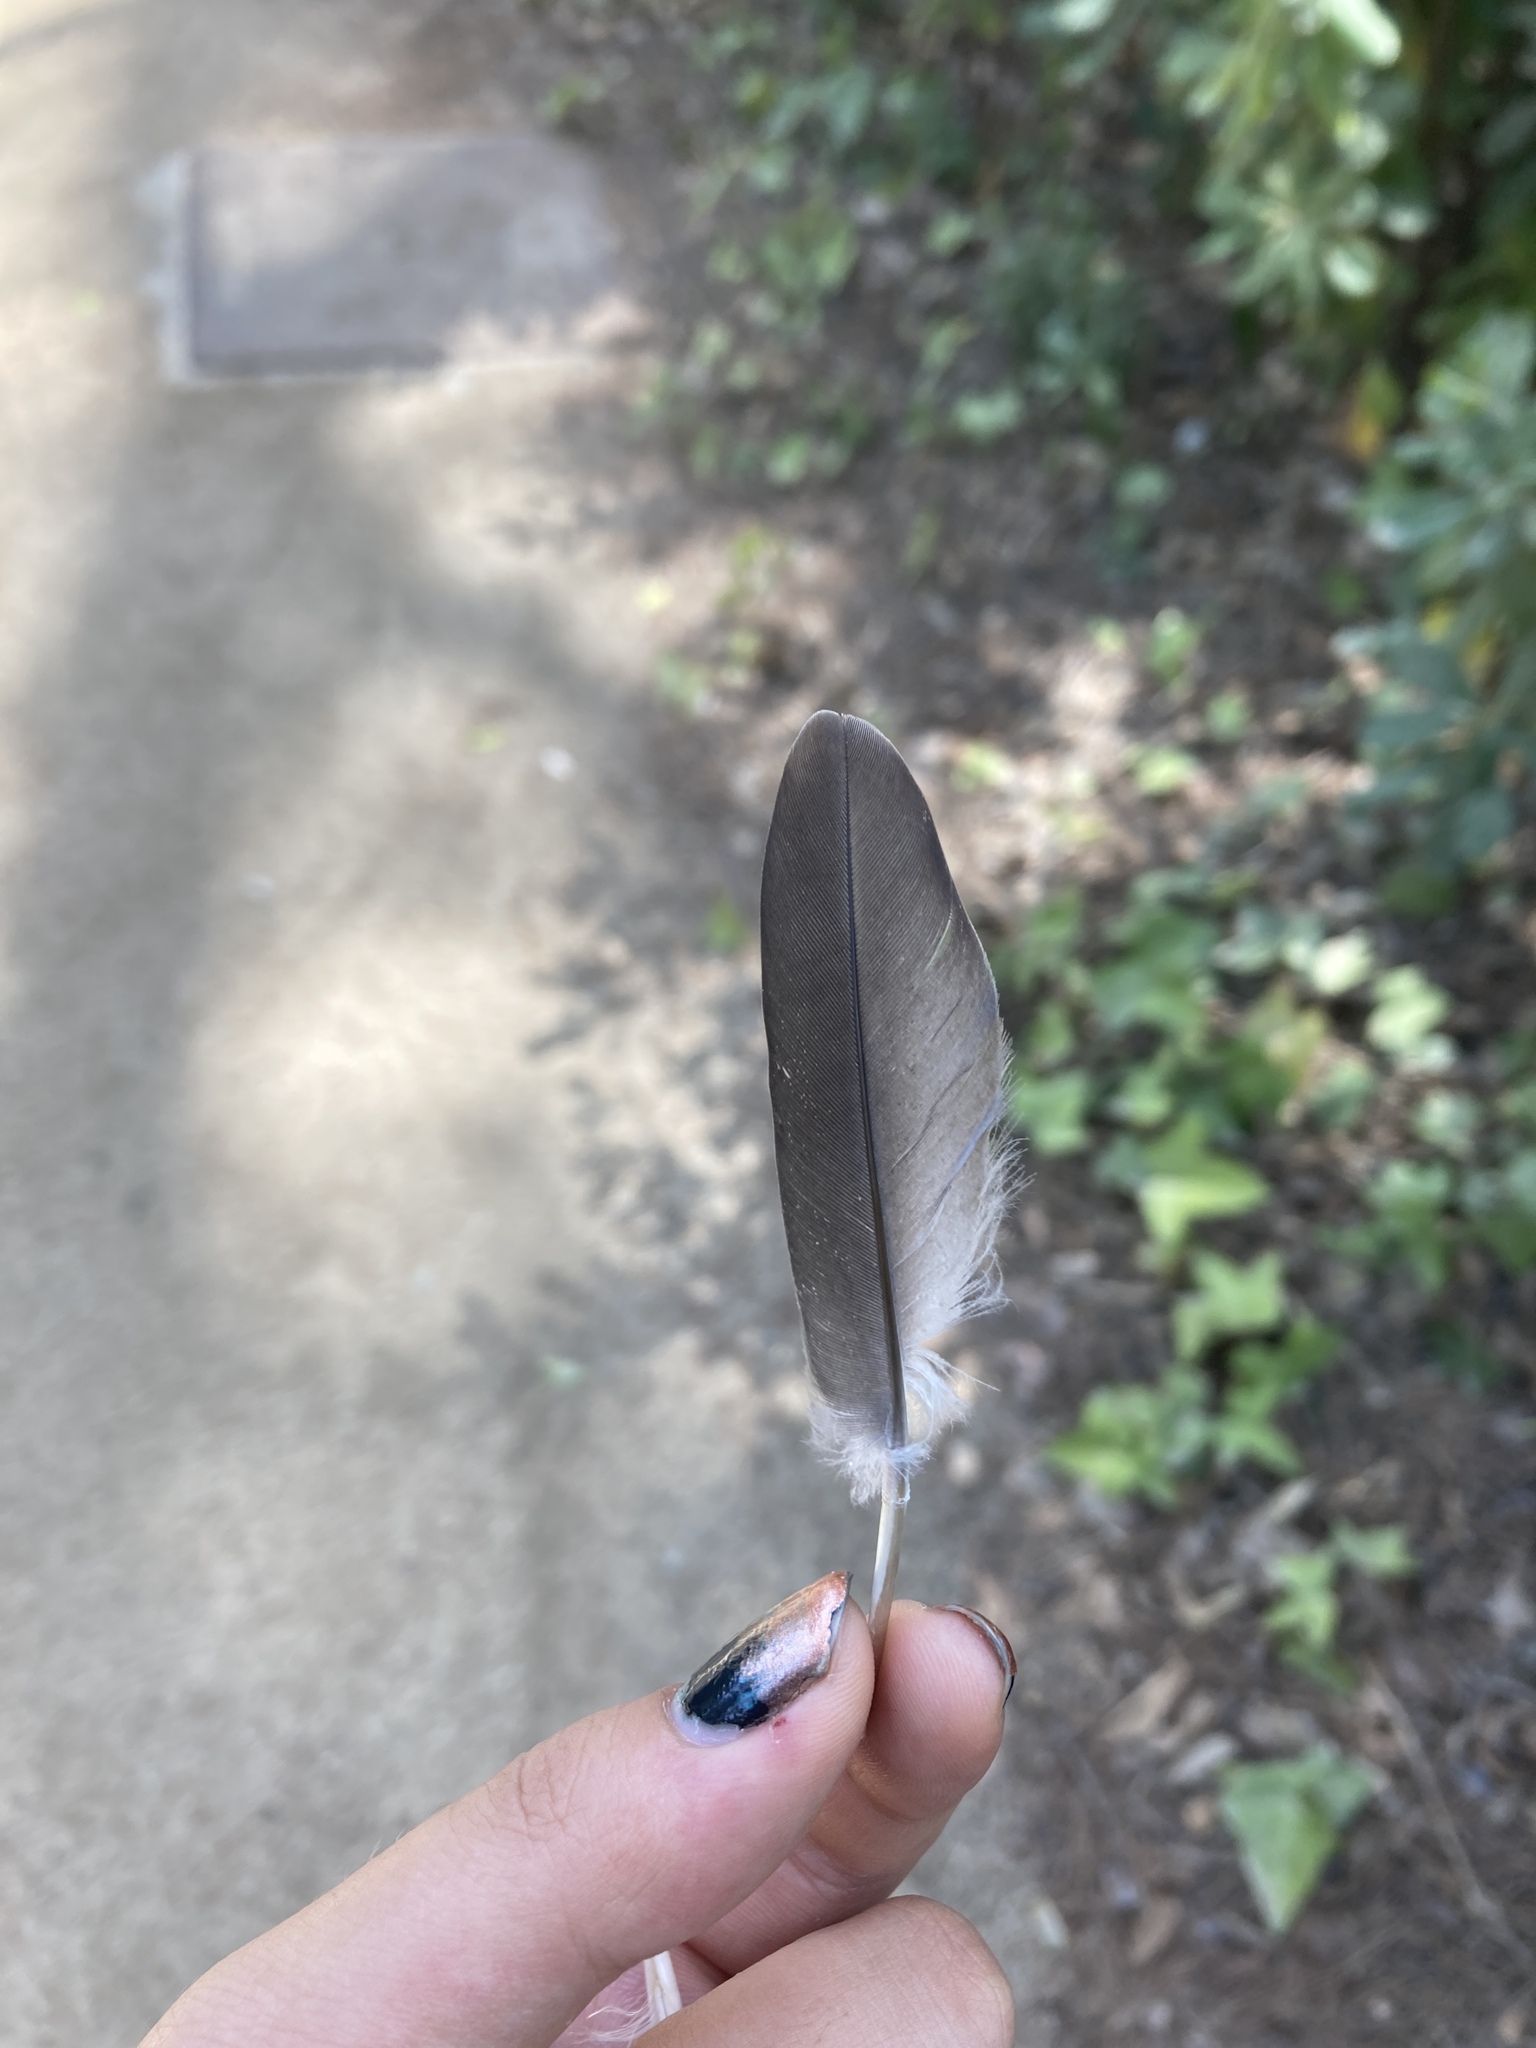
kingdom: Animalia
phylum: Chordata
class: Aves
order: Columbiformes
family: Columbidae
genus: Columba
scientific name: Columba palumbus
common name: Common wood pigeon
